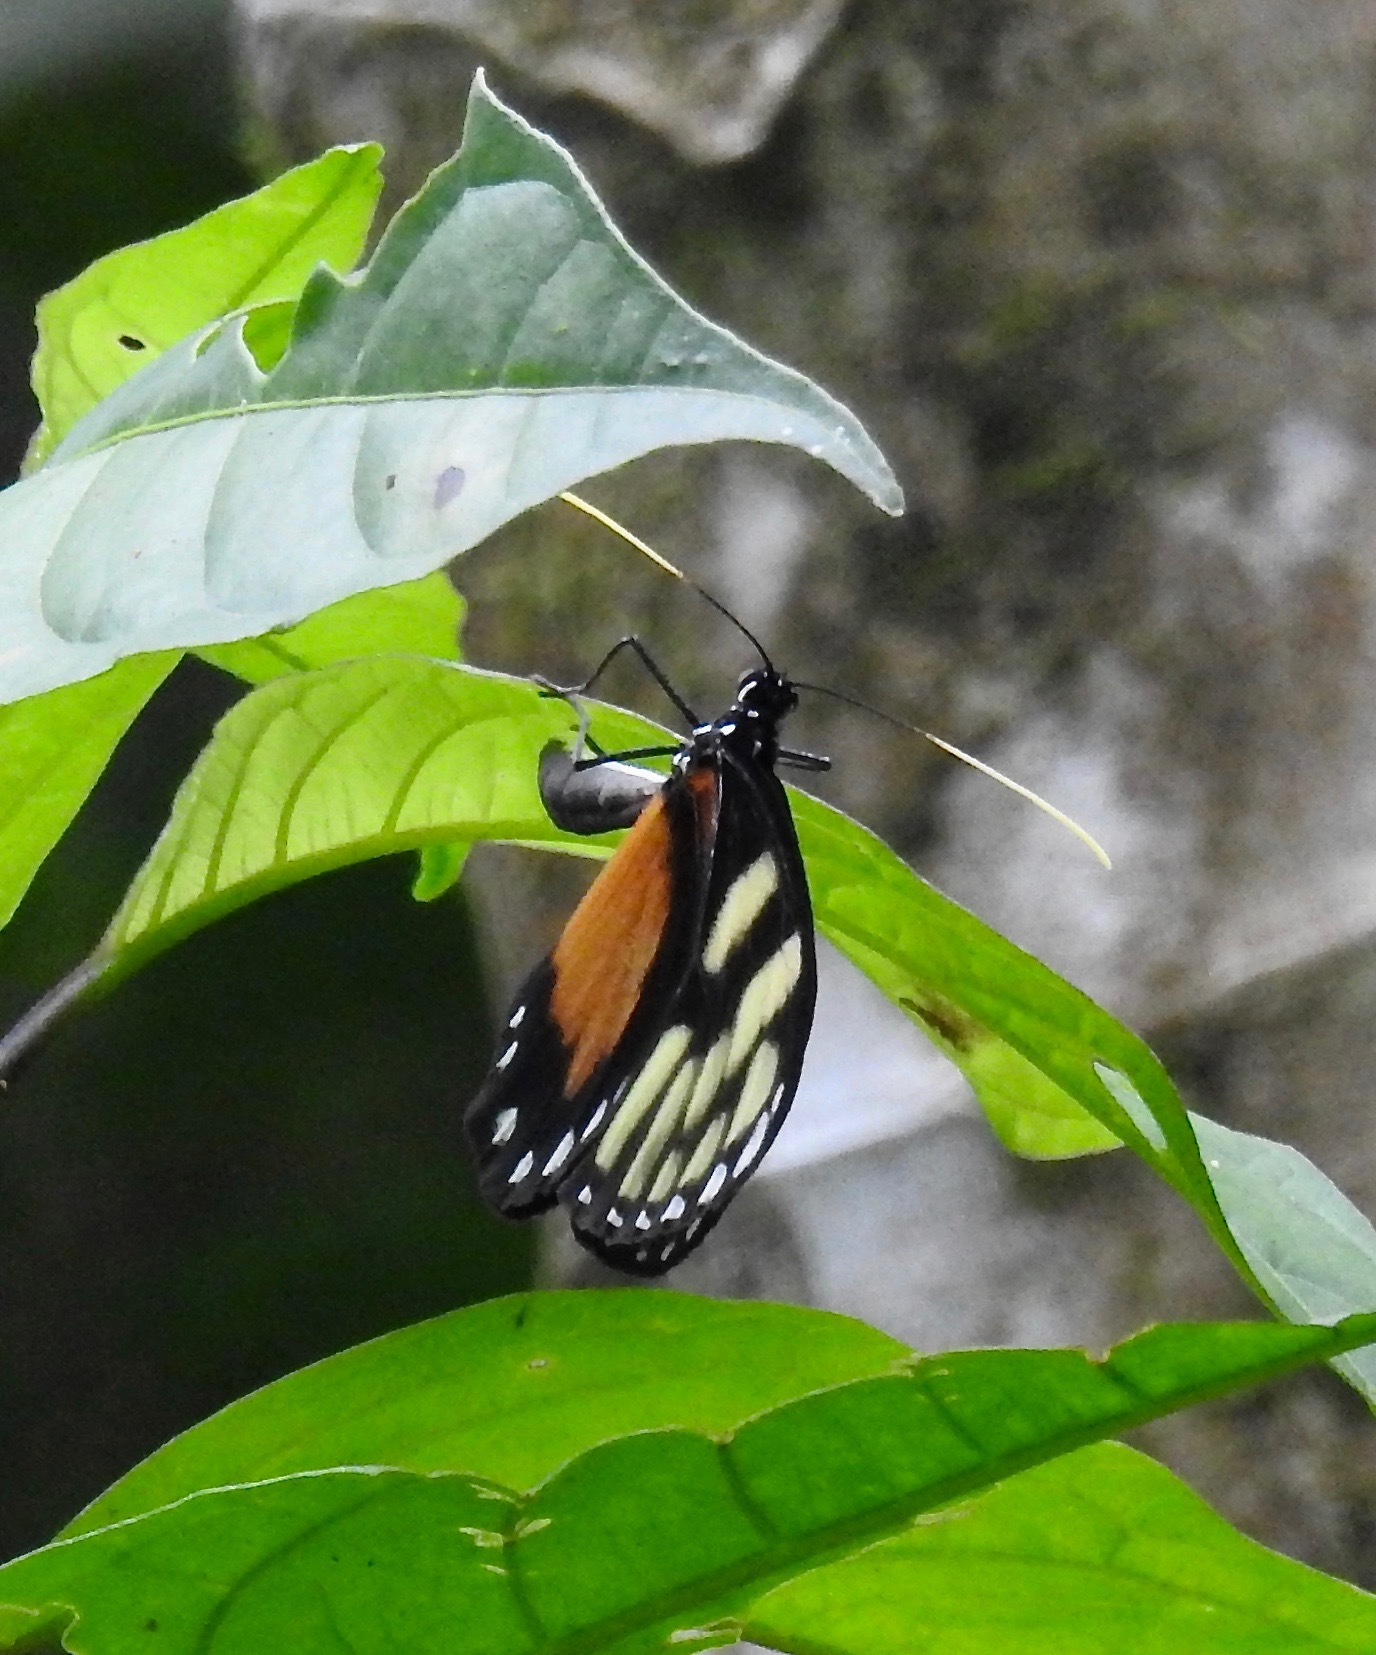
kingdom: Animalia
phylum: Arthropoda
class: Insecta
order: Lepidoptera
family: Nymphalidae
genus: Godyris
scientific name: Godyris zavaleta
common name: Zavaleta glasswing
